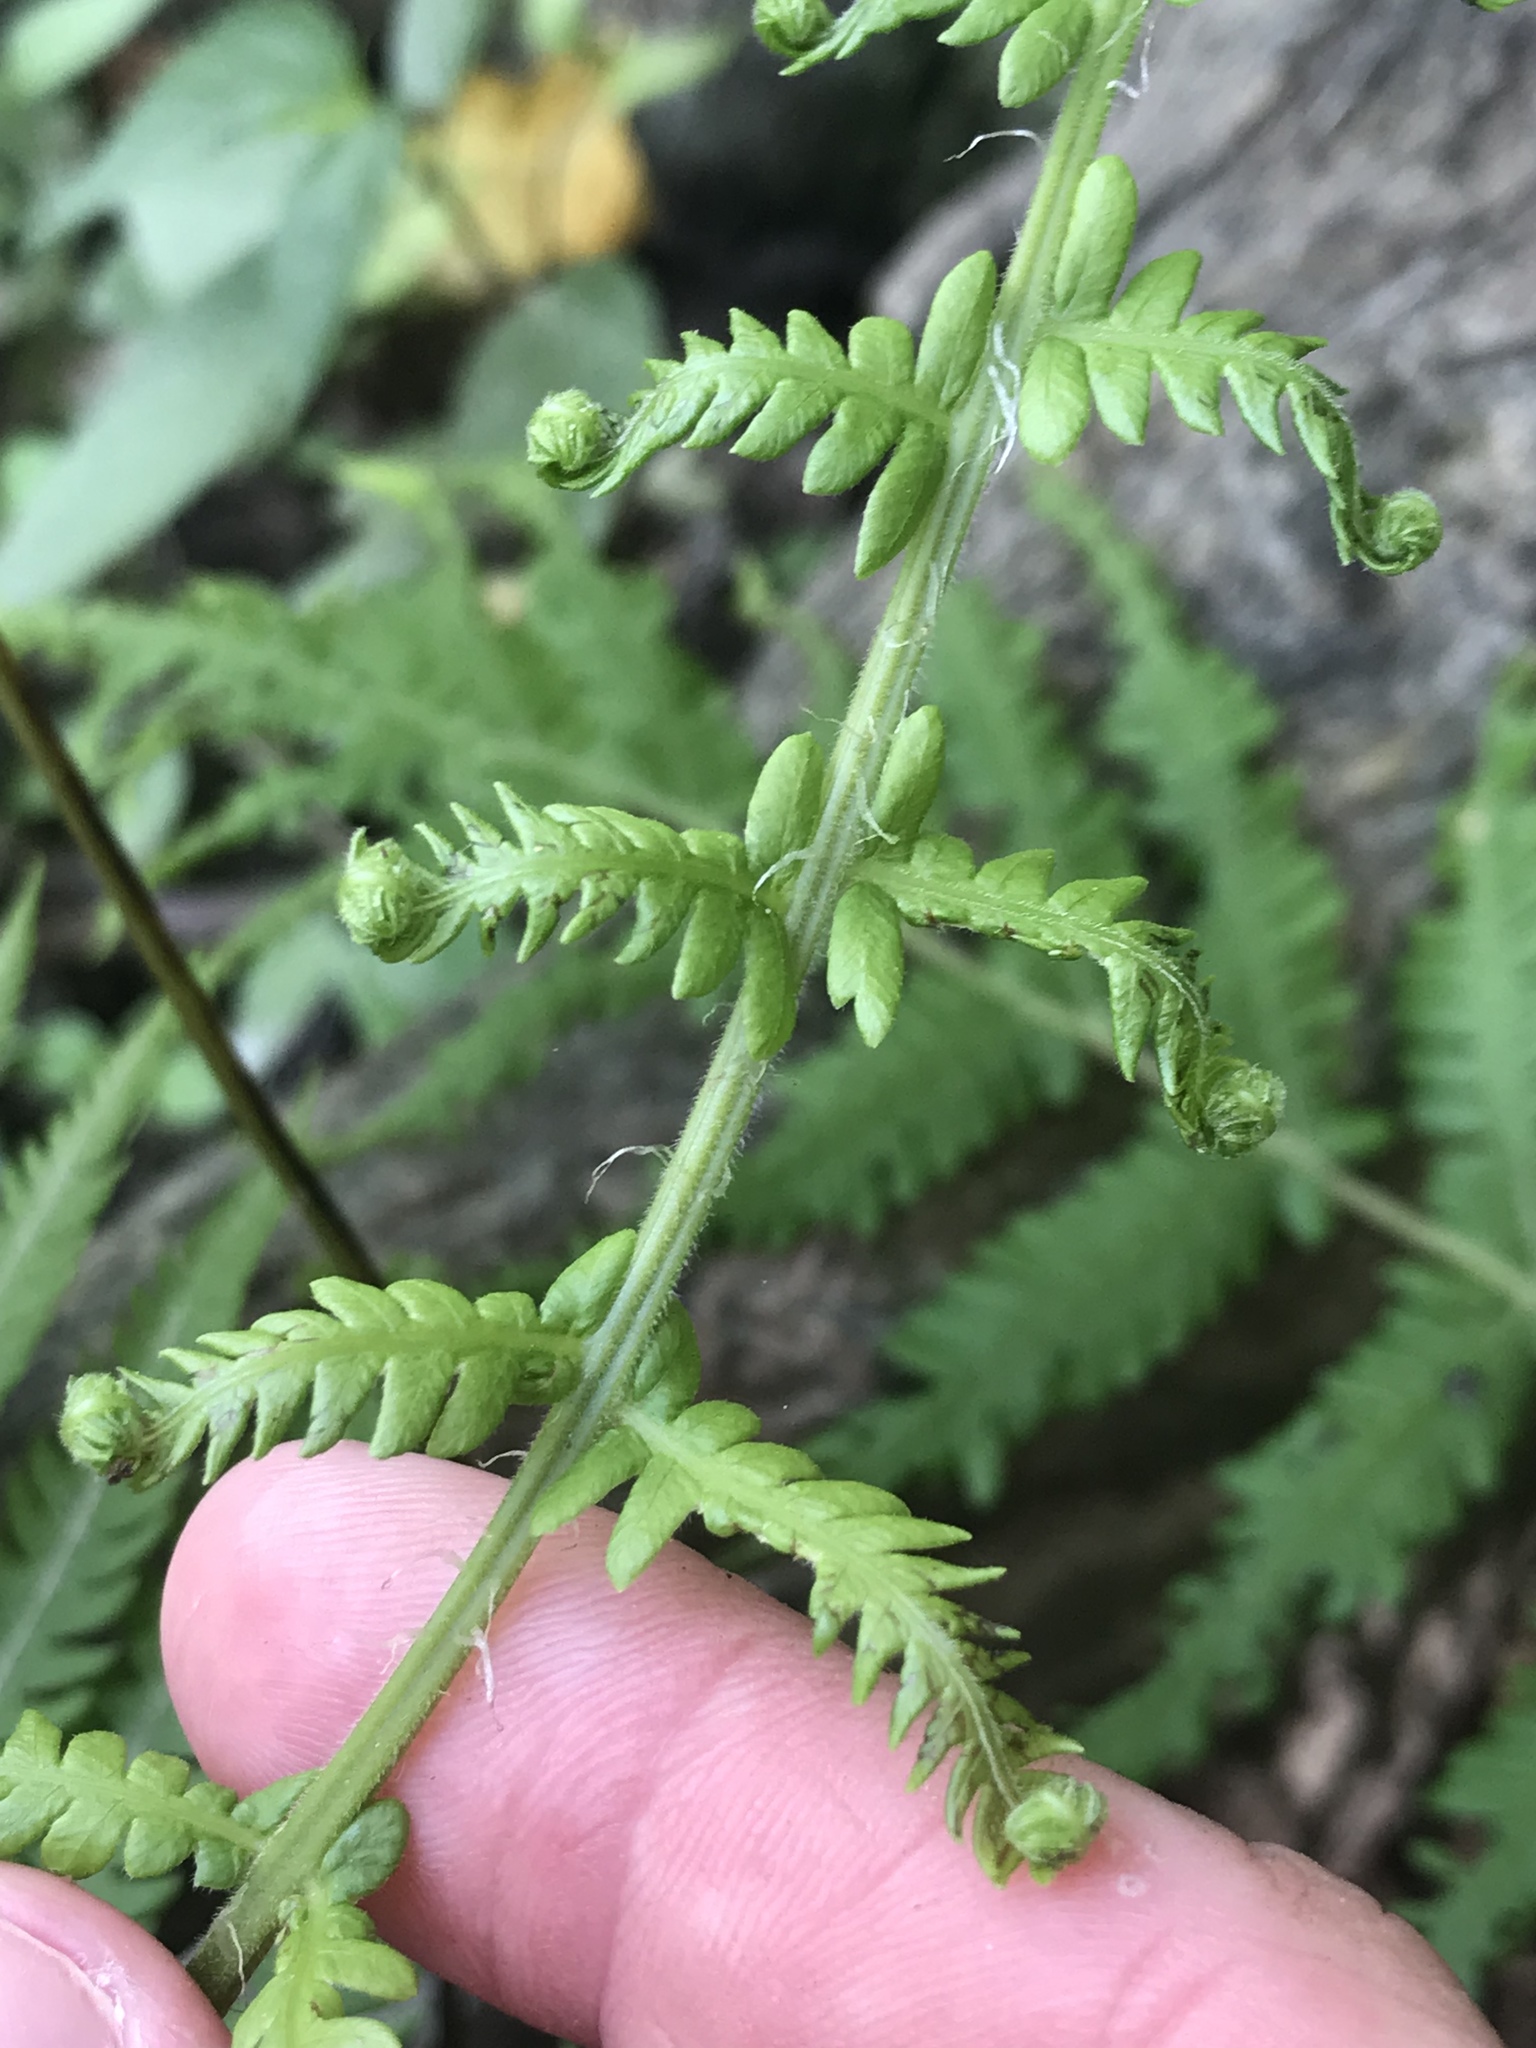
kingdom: Plantae
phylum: Tracheophyta
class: Polypodiopsida
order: Polypodiales
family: Thelypteridaceae
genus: Pelazoneuron
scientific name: Pelazoneuron ovatum
